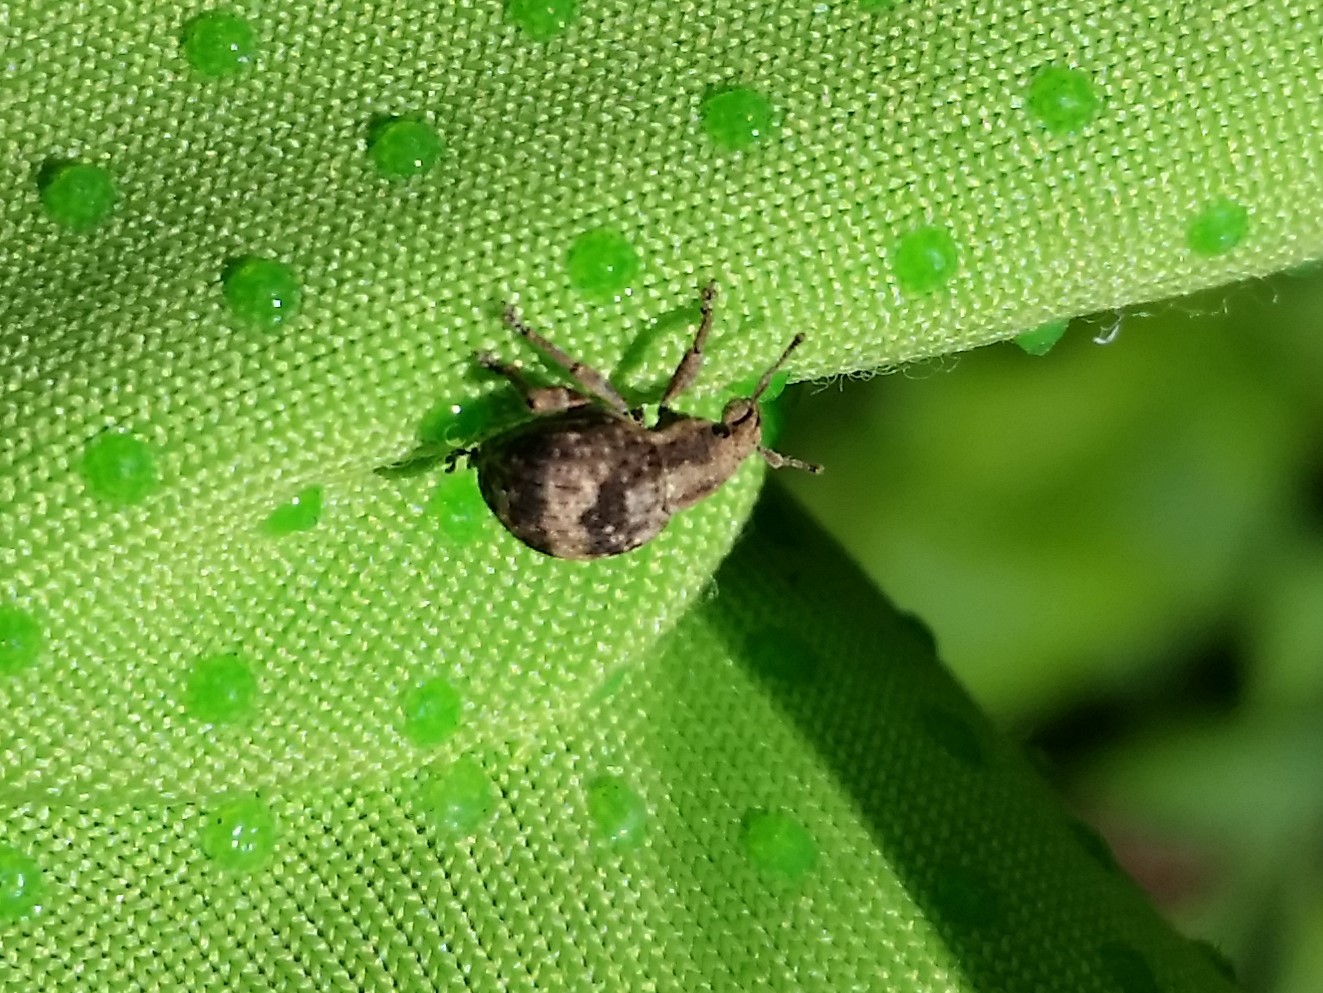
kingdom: Animalia
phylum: Arthropoda
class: Insecta
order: Coleoptera
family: Curculionidae
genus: Pseudocneorhinus
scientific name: Pseudocneorhinus bifasciatus
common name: Two-banded japanese weevil
